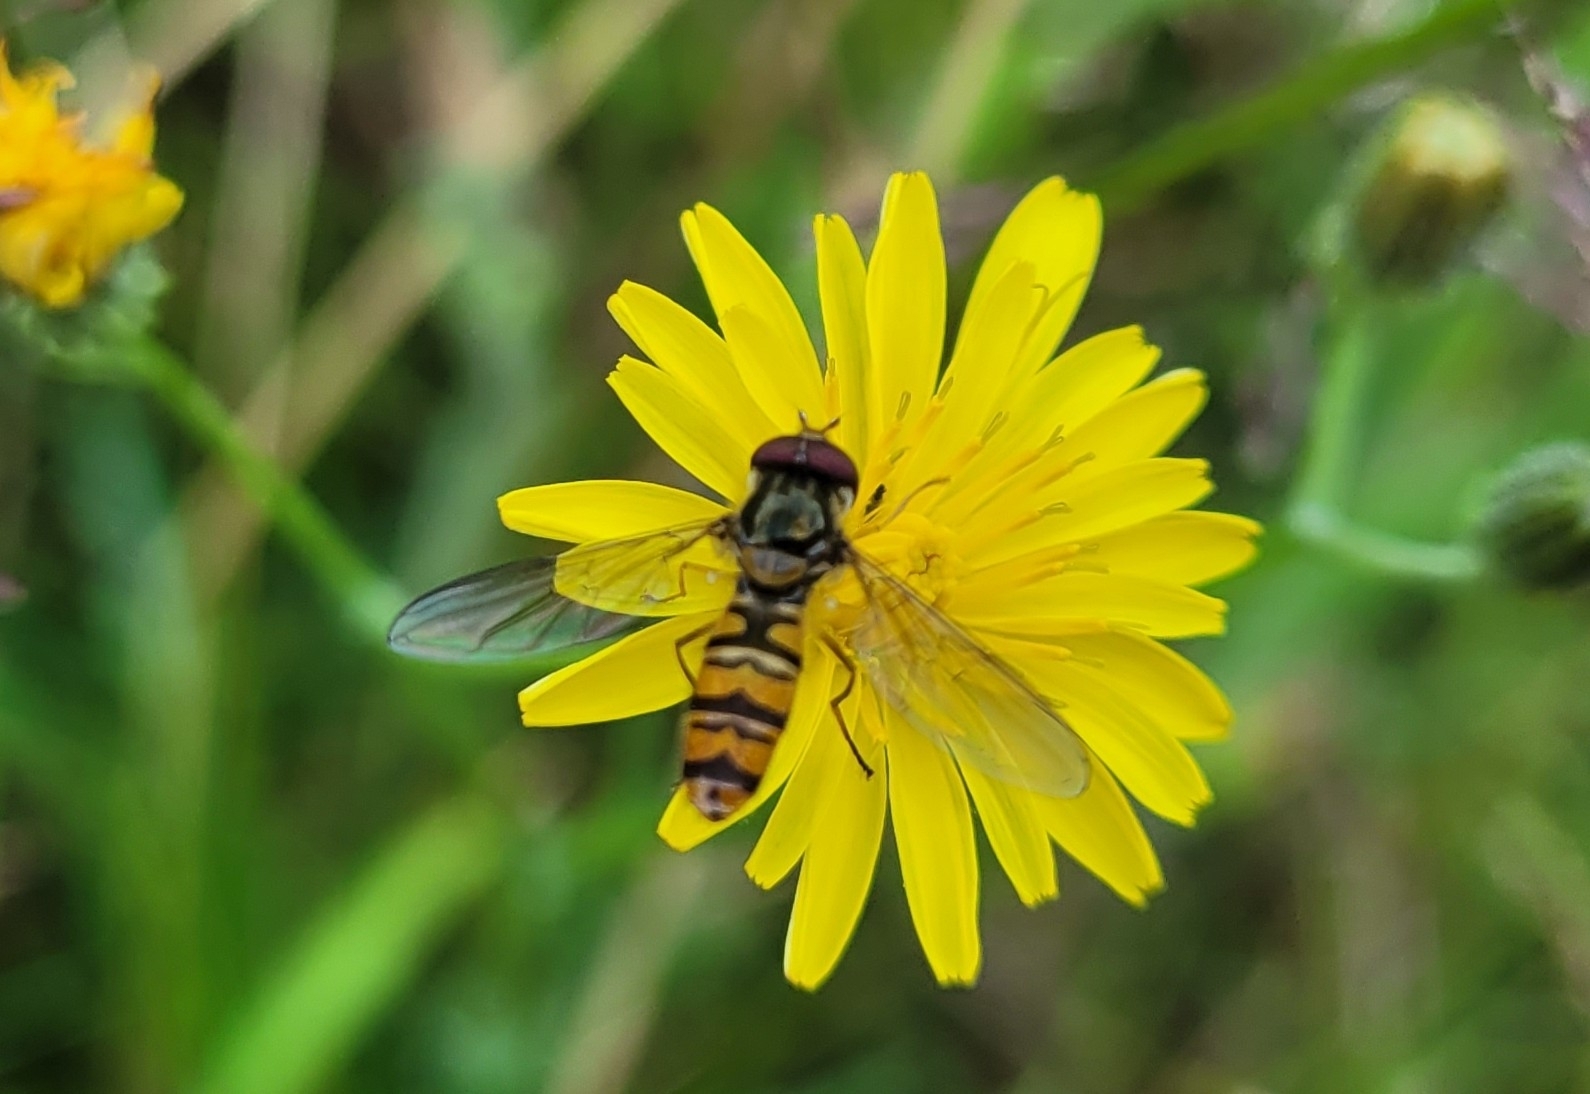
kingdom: Animalia
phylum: Arthropoda
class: Insecta
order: Diptera
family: Syrphidae
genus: Episyrphus
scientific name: Episyrphus balteatus
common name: Marmalade hoverfly
